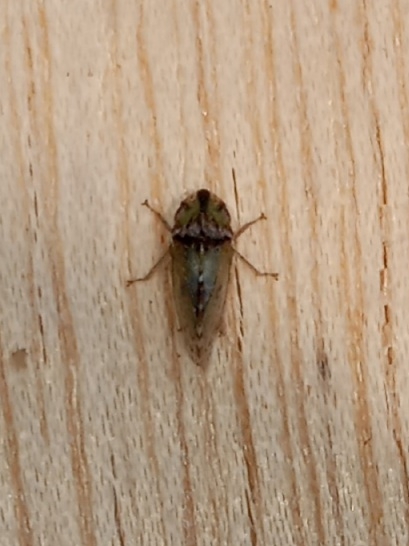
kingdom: Animalia
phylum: Arthropoda
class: Insecta
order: Hemiptera
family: Cicadellidae
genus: Xerophloea
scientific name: Xerophloea viridis
